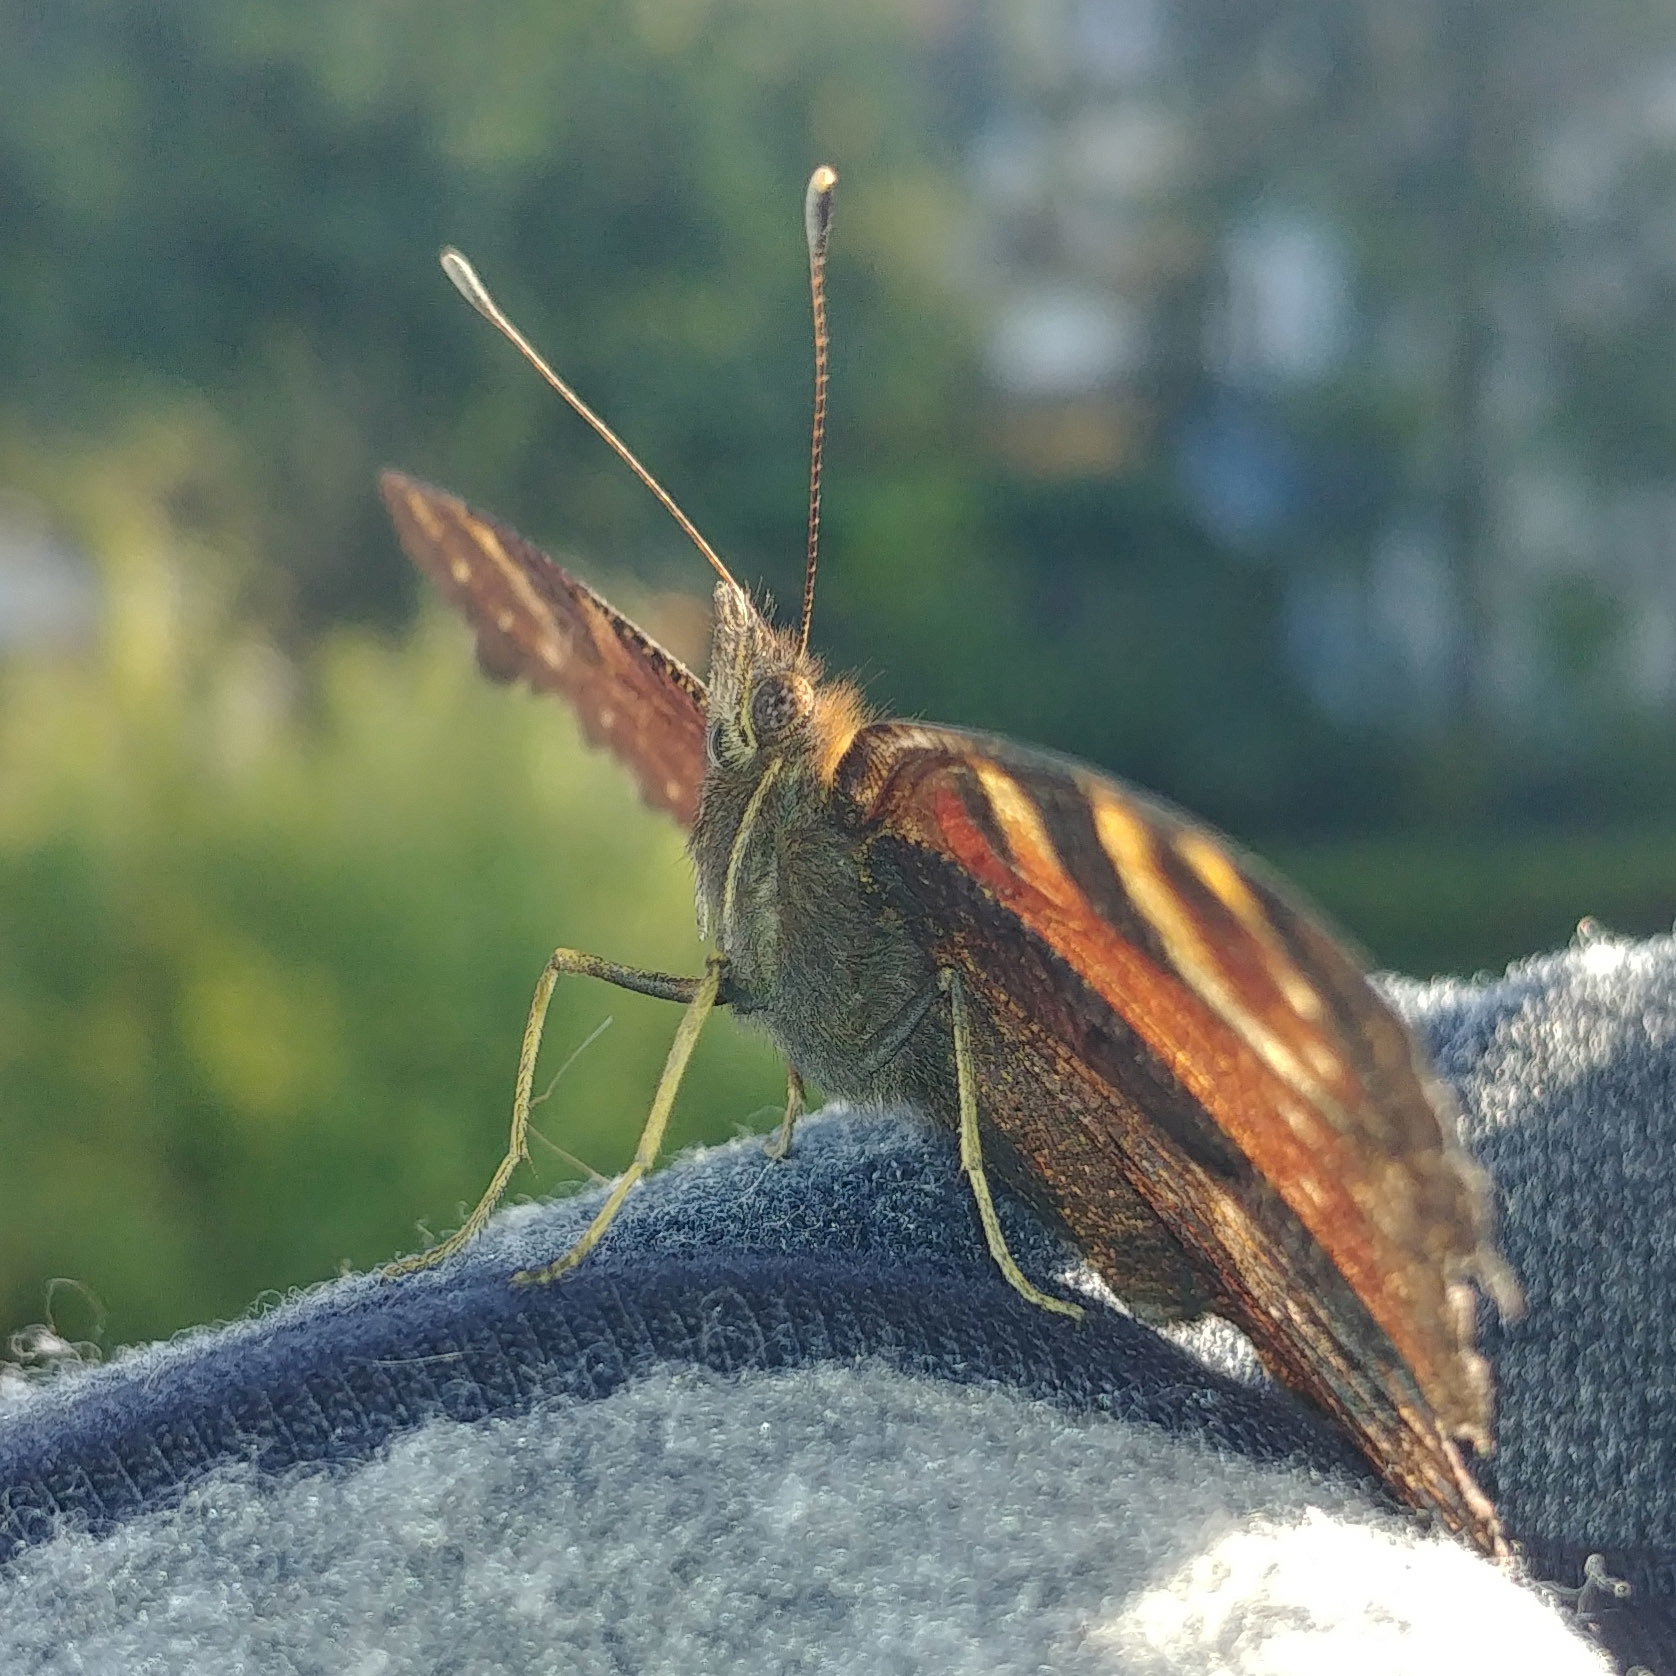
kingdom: Animalia
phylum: Arthropoda
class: Insecta
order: Lepidoptera
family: Nymphalidae
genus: Aglais
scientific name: Aglais io
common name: Peacock
